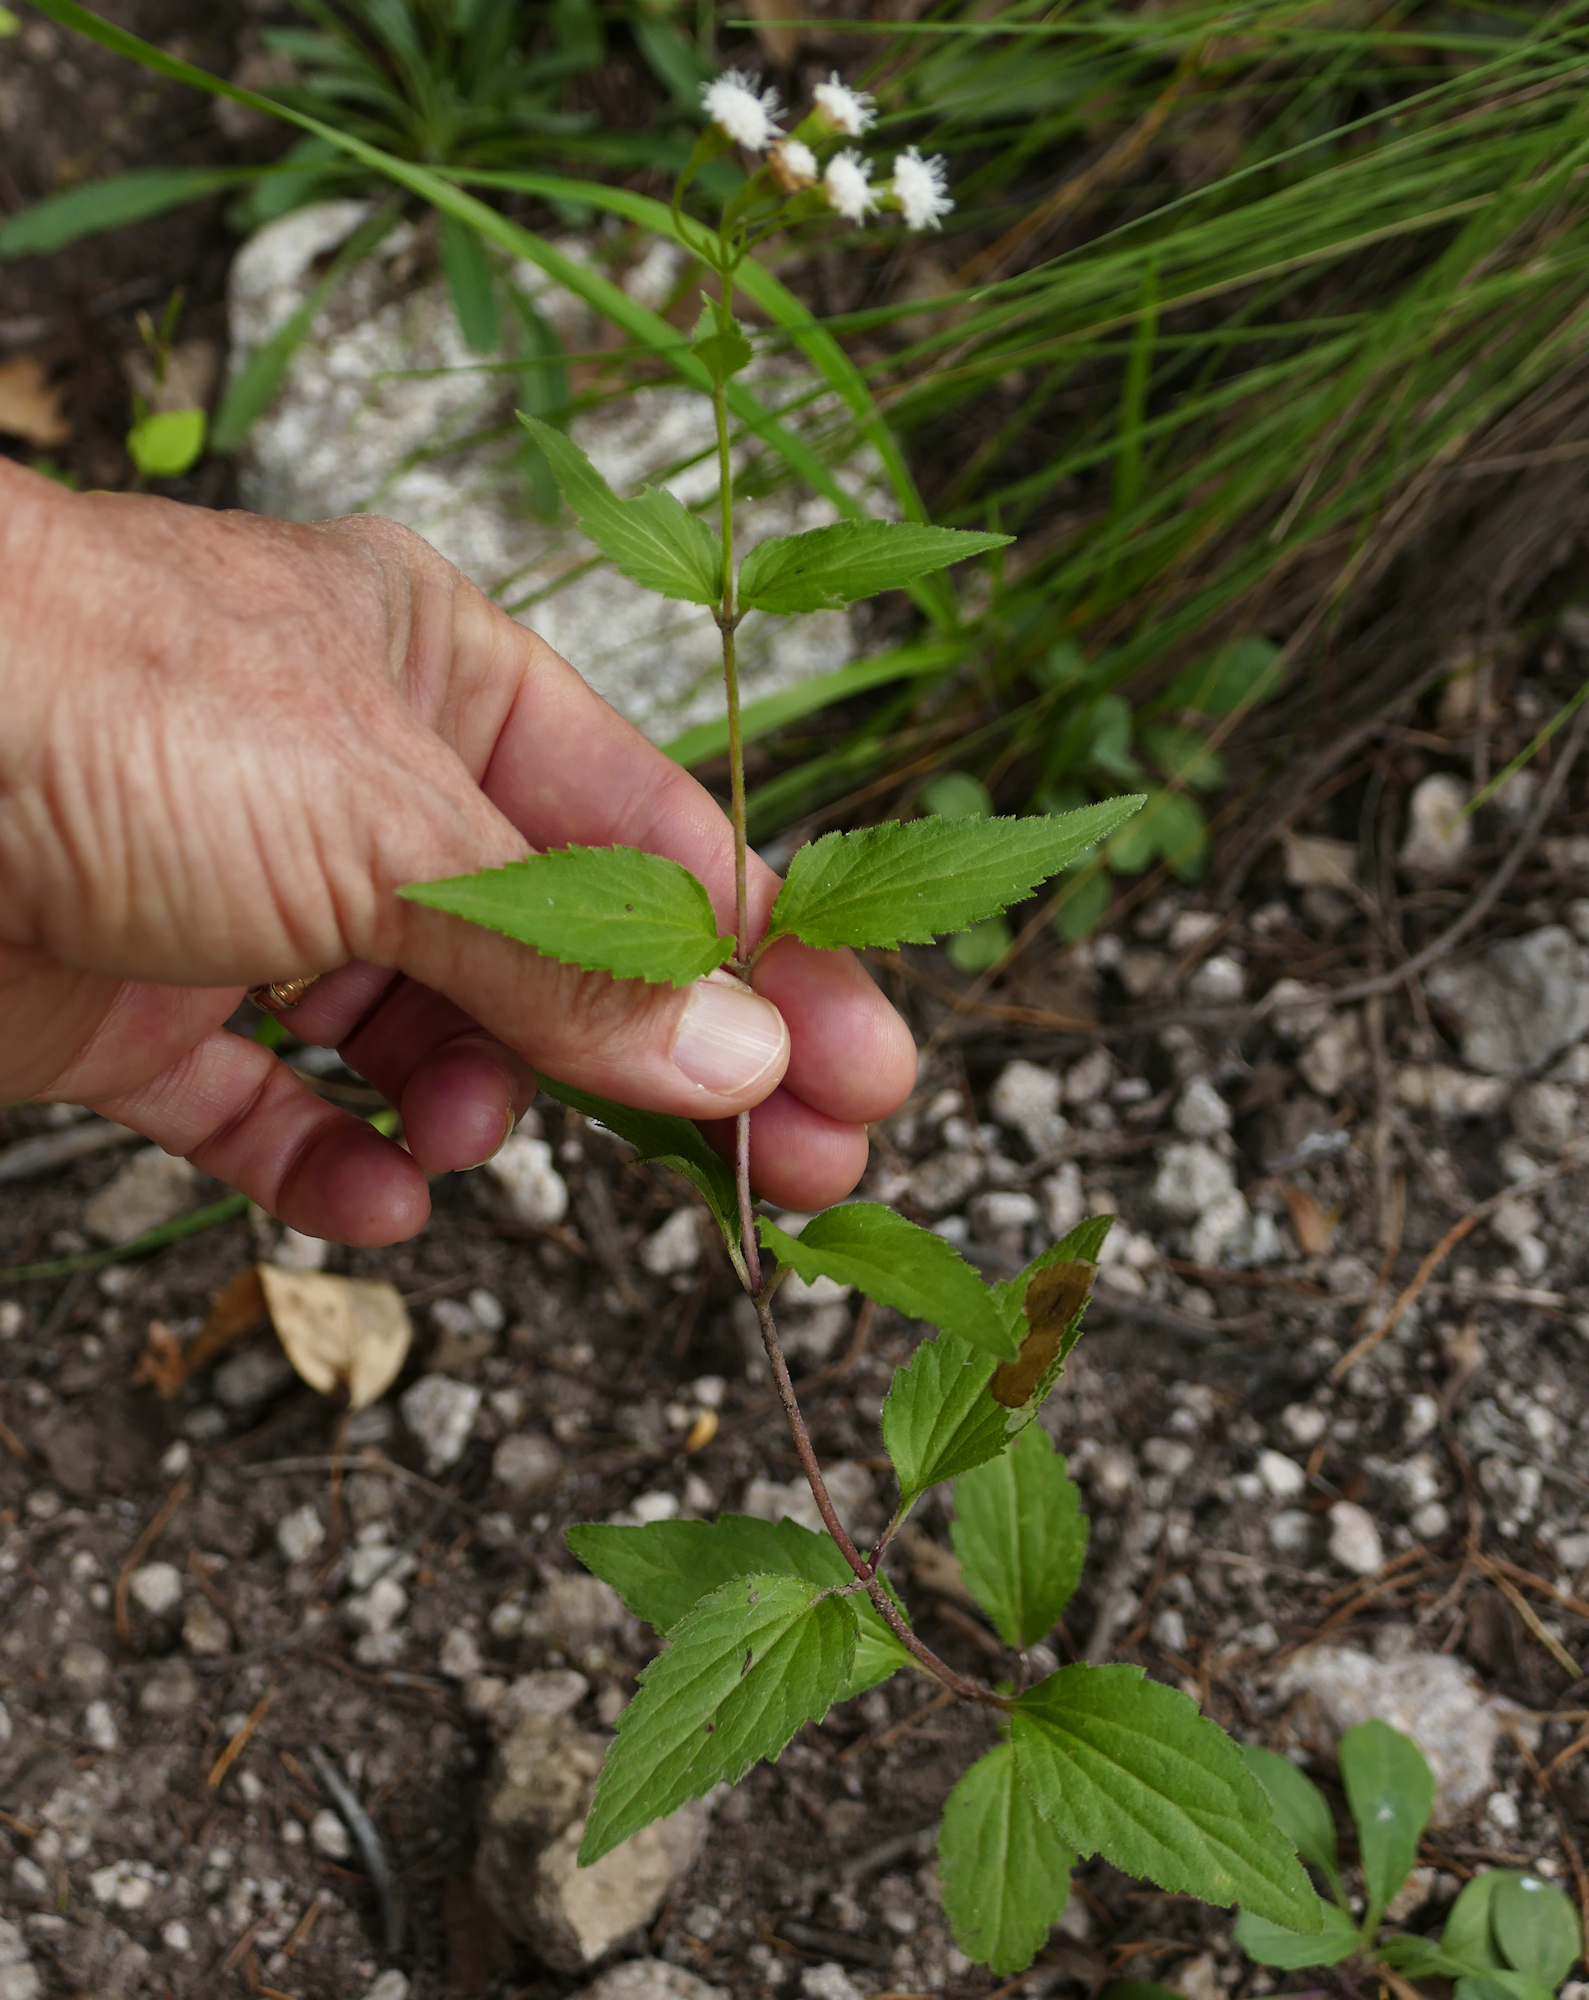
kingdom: Plantae
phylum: Tracheophyta
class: Magnoliopsida
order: Asterales
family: Asteraceae
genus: Ageratina
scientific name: Ageratina rothrockii
